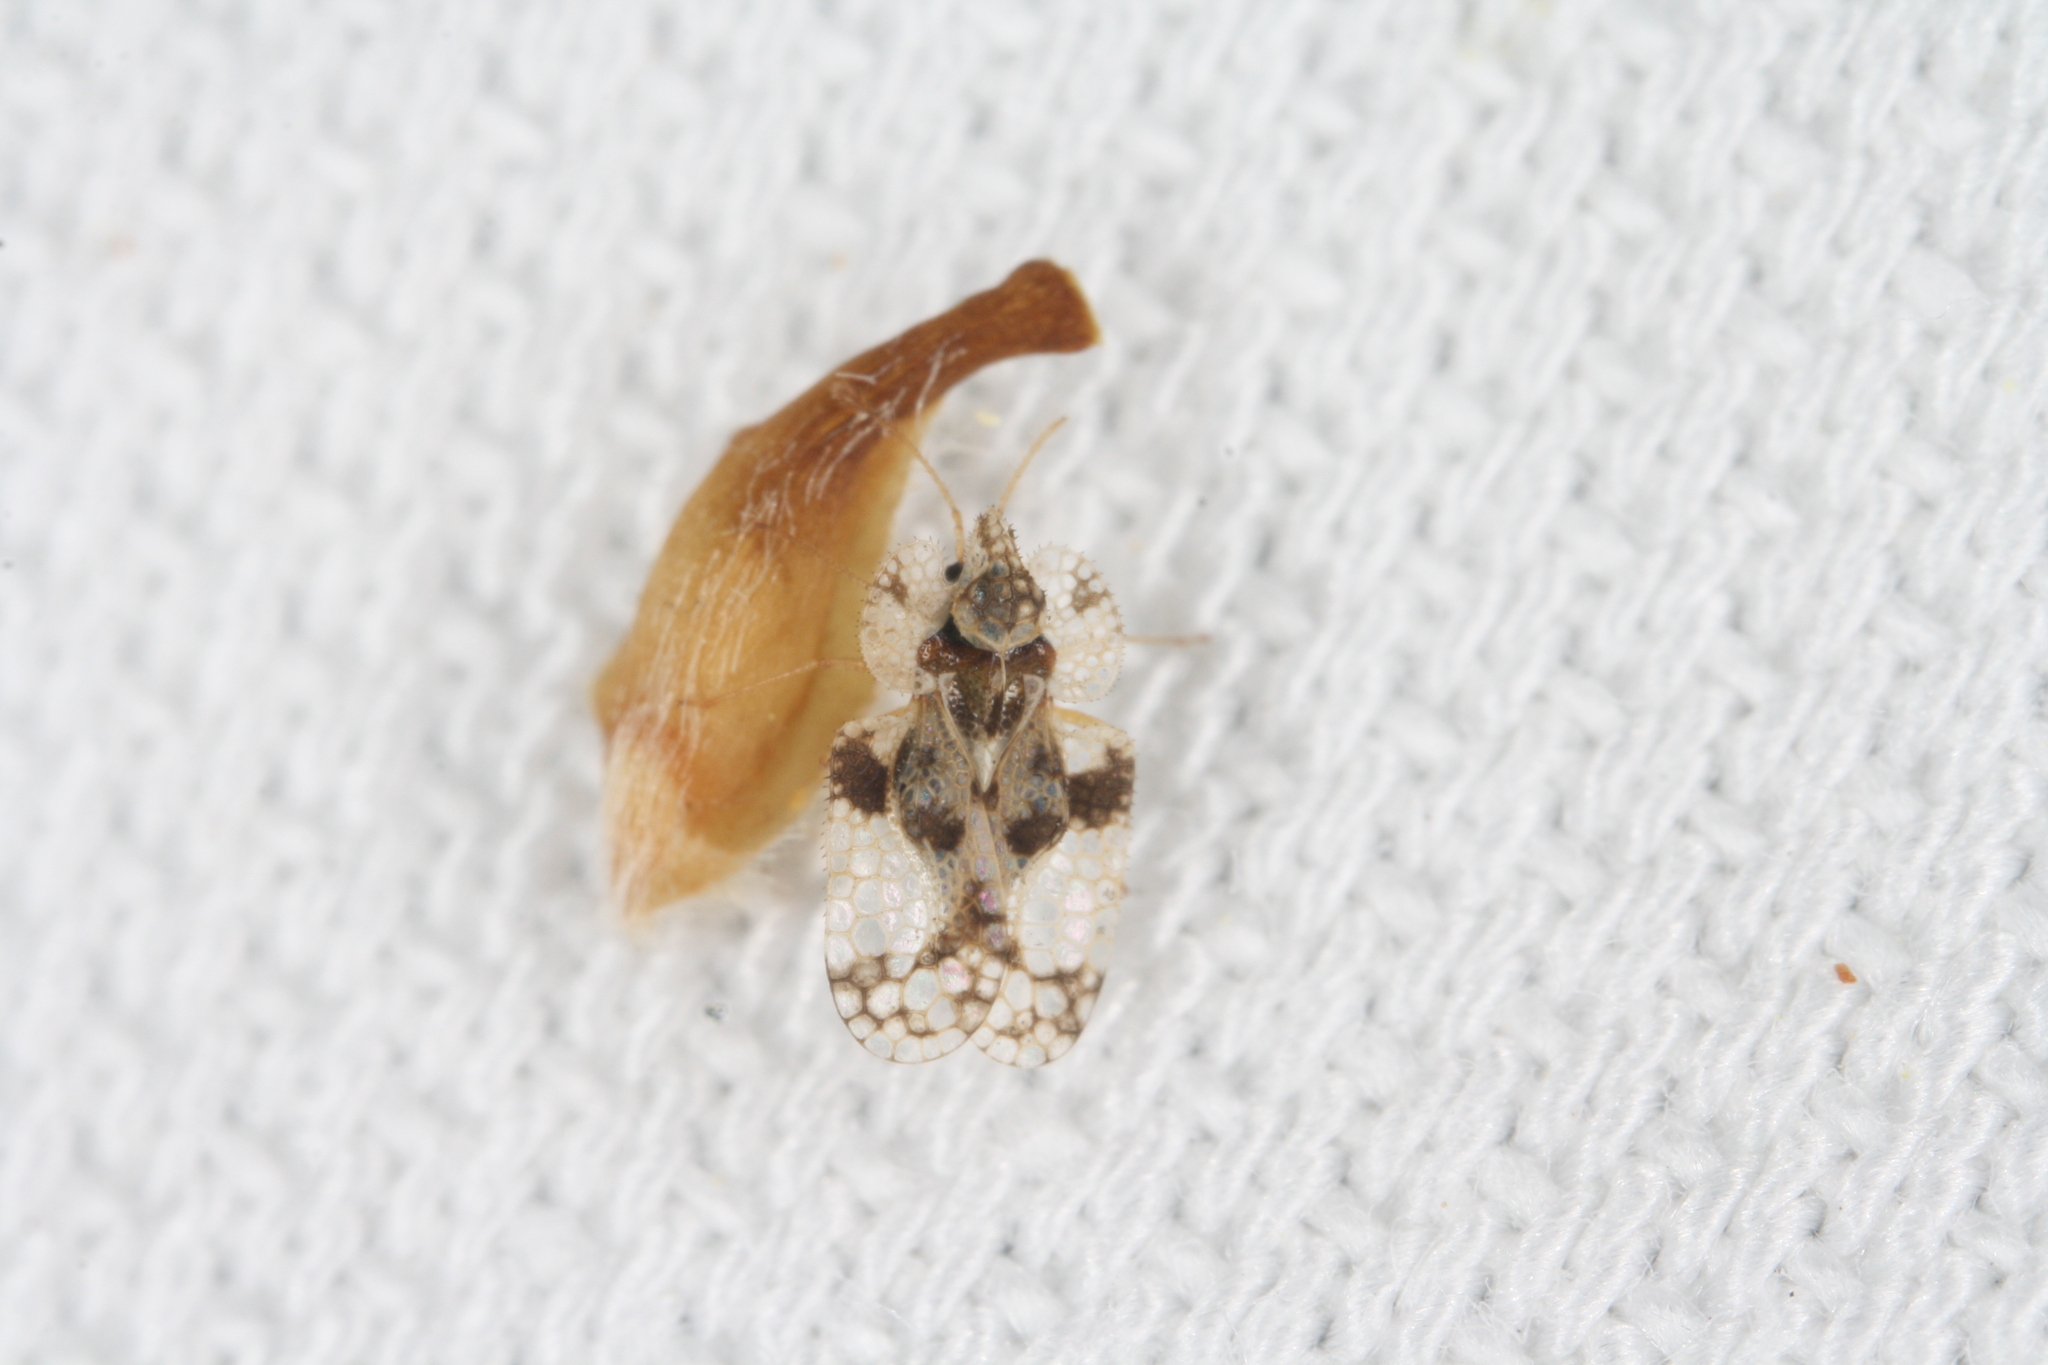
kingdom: Animalia
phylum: Arthropoda
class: Insecta
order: Hemiptera
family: Tingidae
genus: Corythucha
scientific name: Corythucha arcuata
